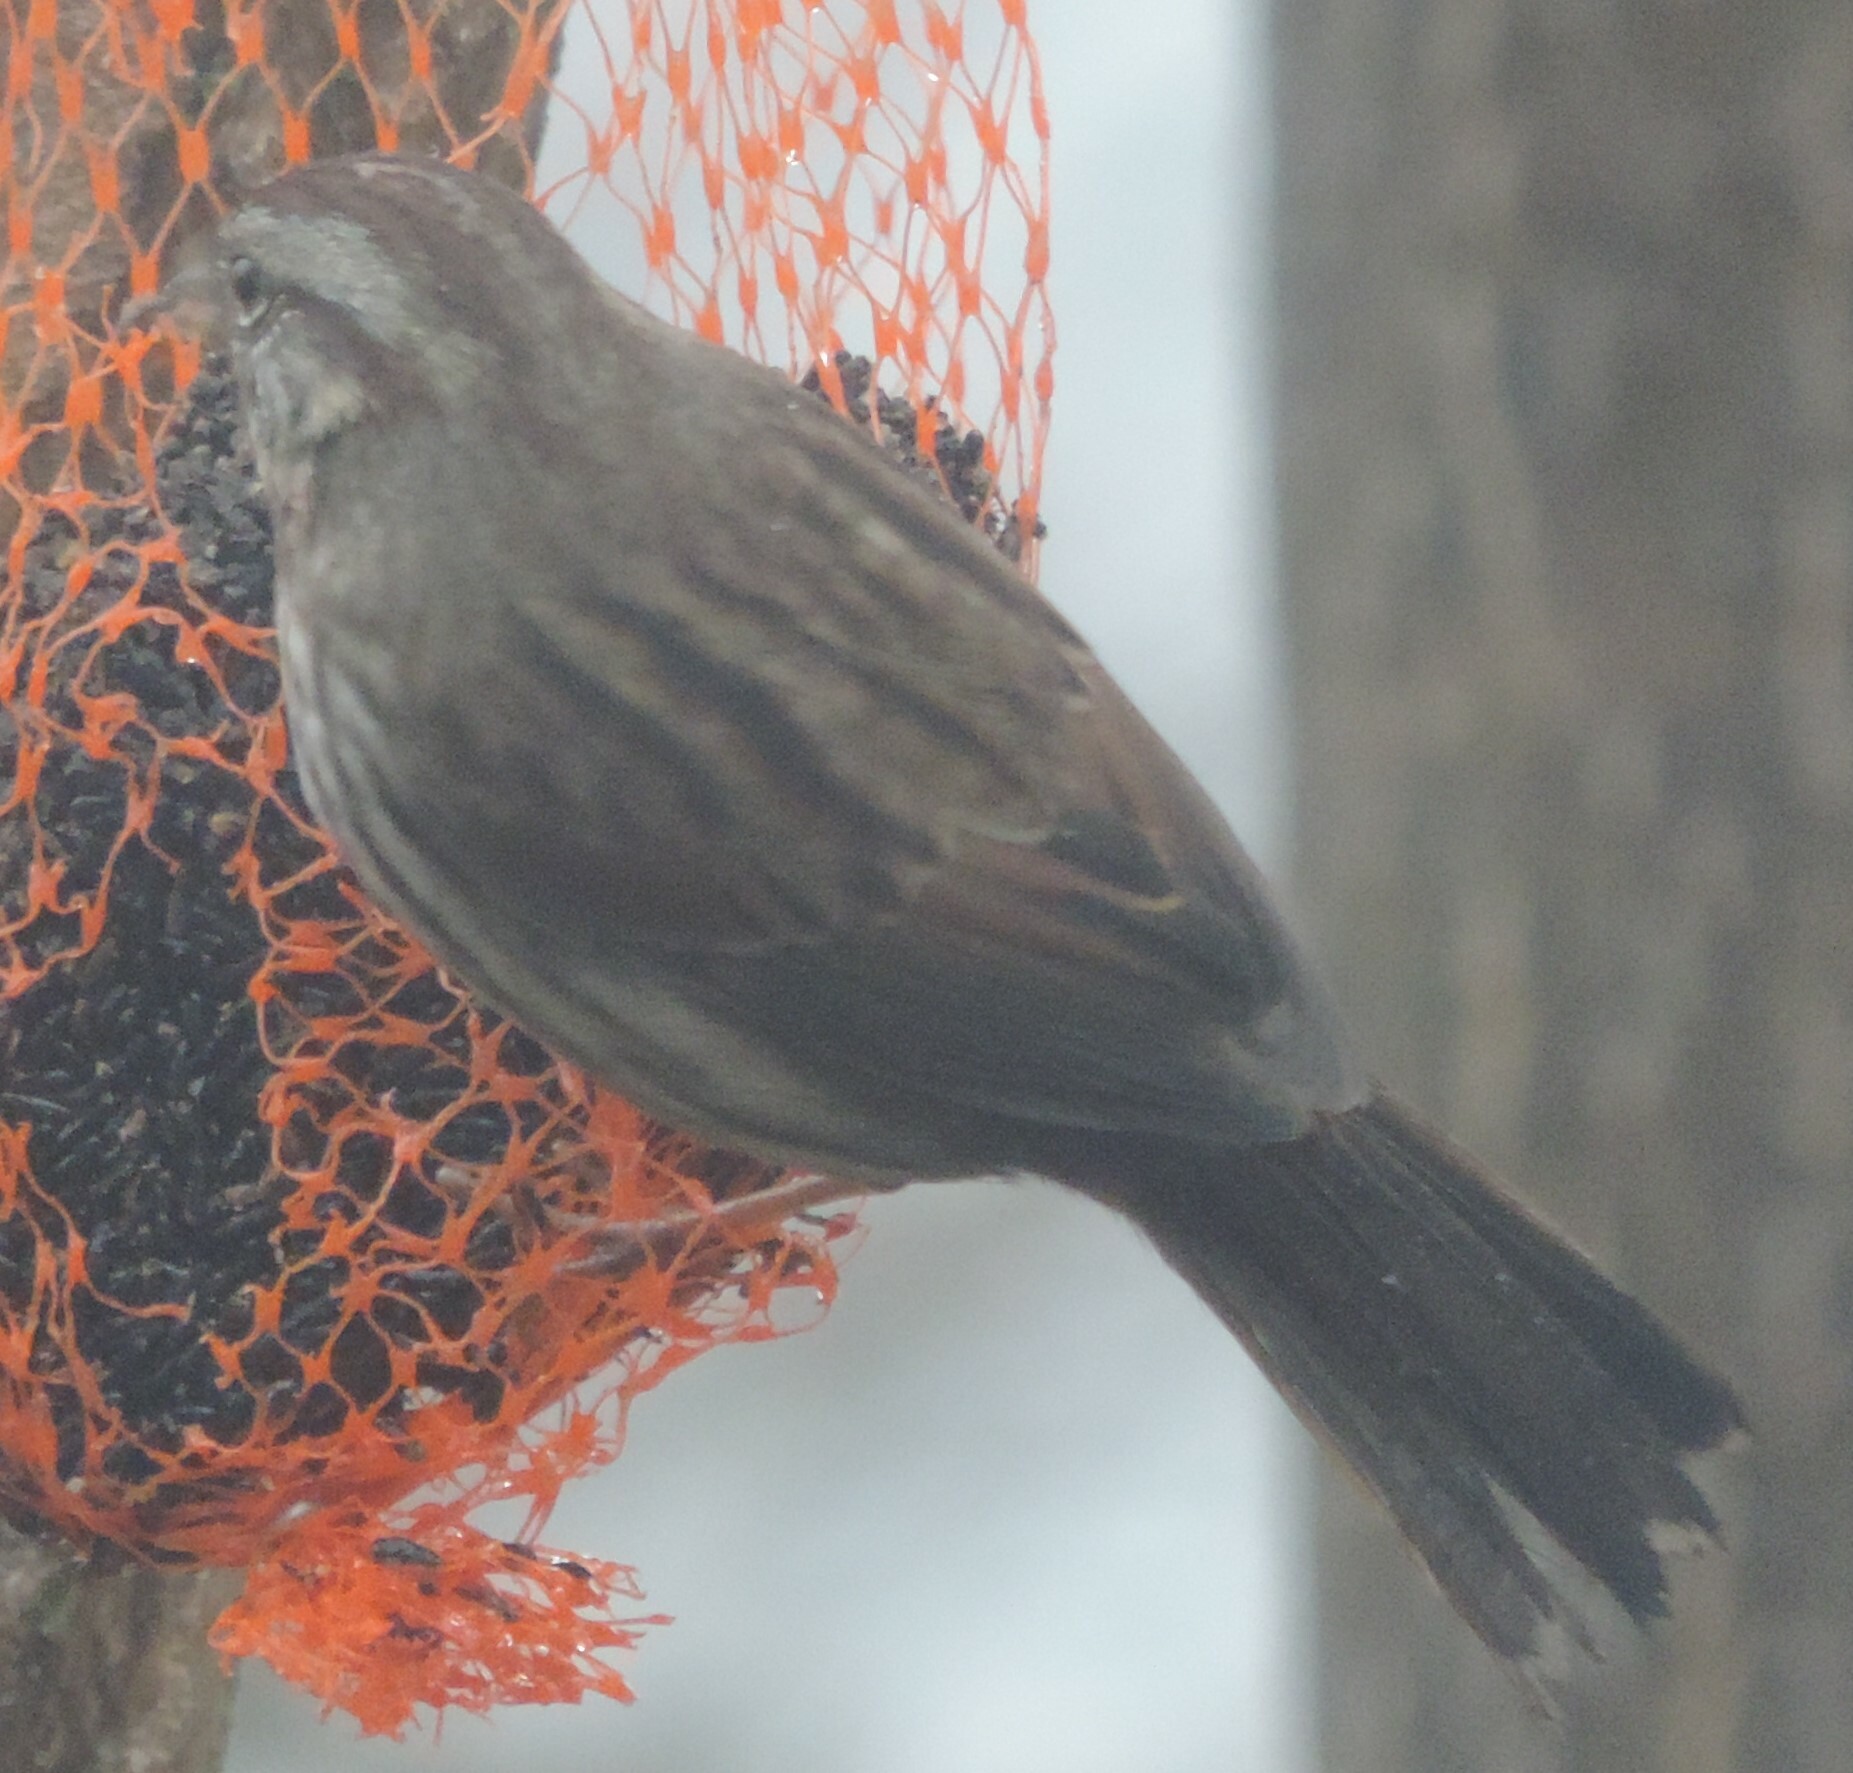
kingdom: Animalia
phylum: Chordata
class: Aves
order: Passeriformes
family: Passerellidae
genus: Melospiza
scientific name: Melospiza melodia
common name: Song sparrow
